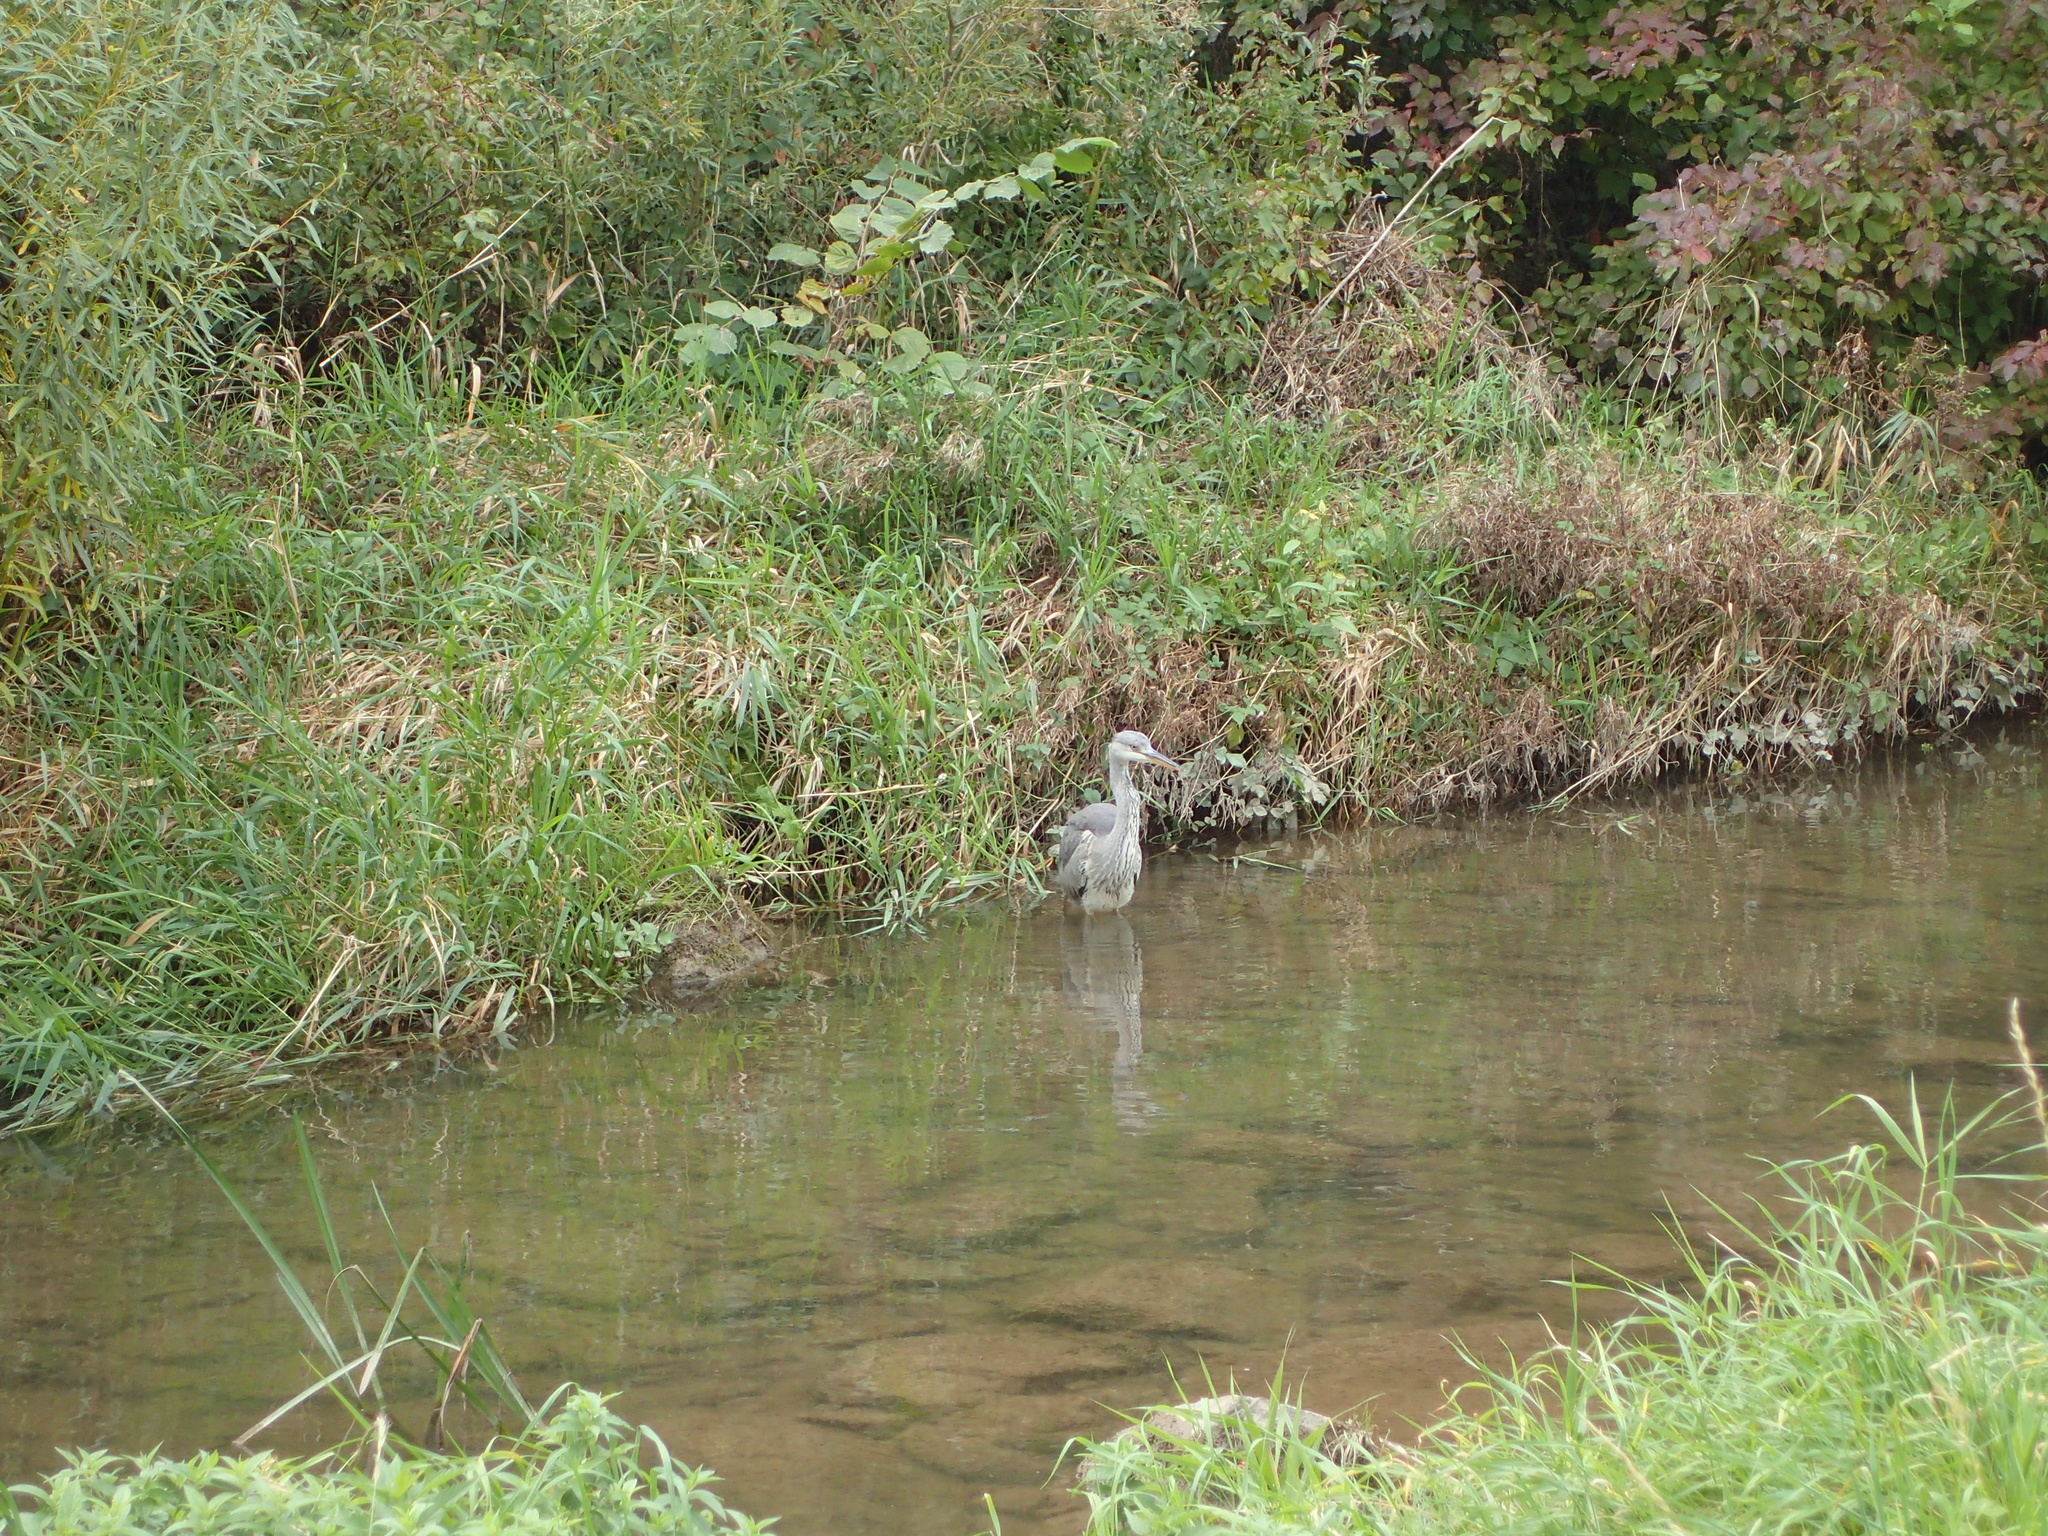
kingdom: Animalia
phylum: Chordata
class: Aves
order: Pelecaniformes
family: Ardeidae
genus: Ardea
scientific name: Ardea cinerea
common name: Grey heron
